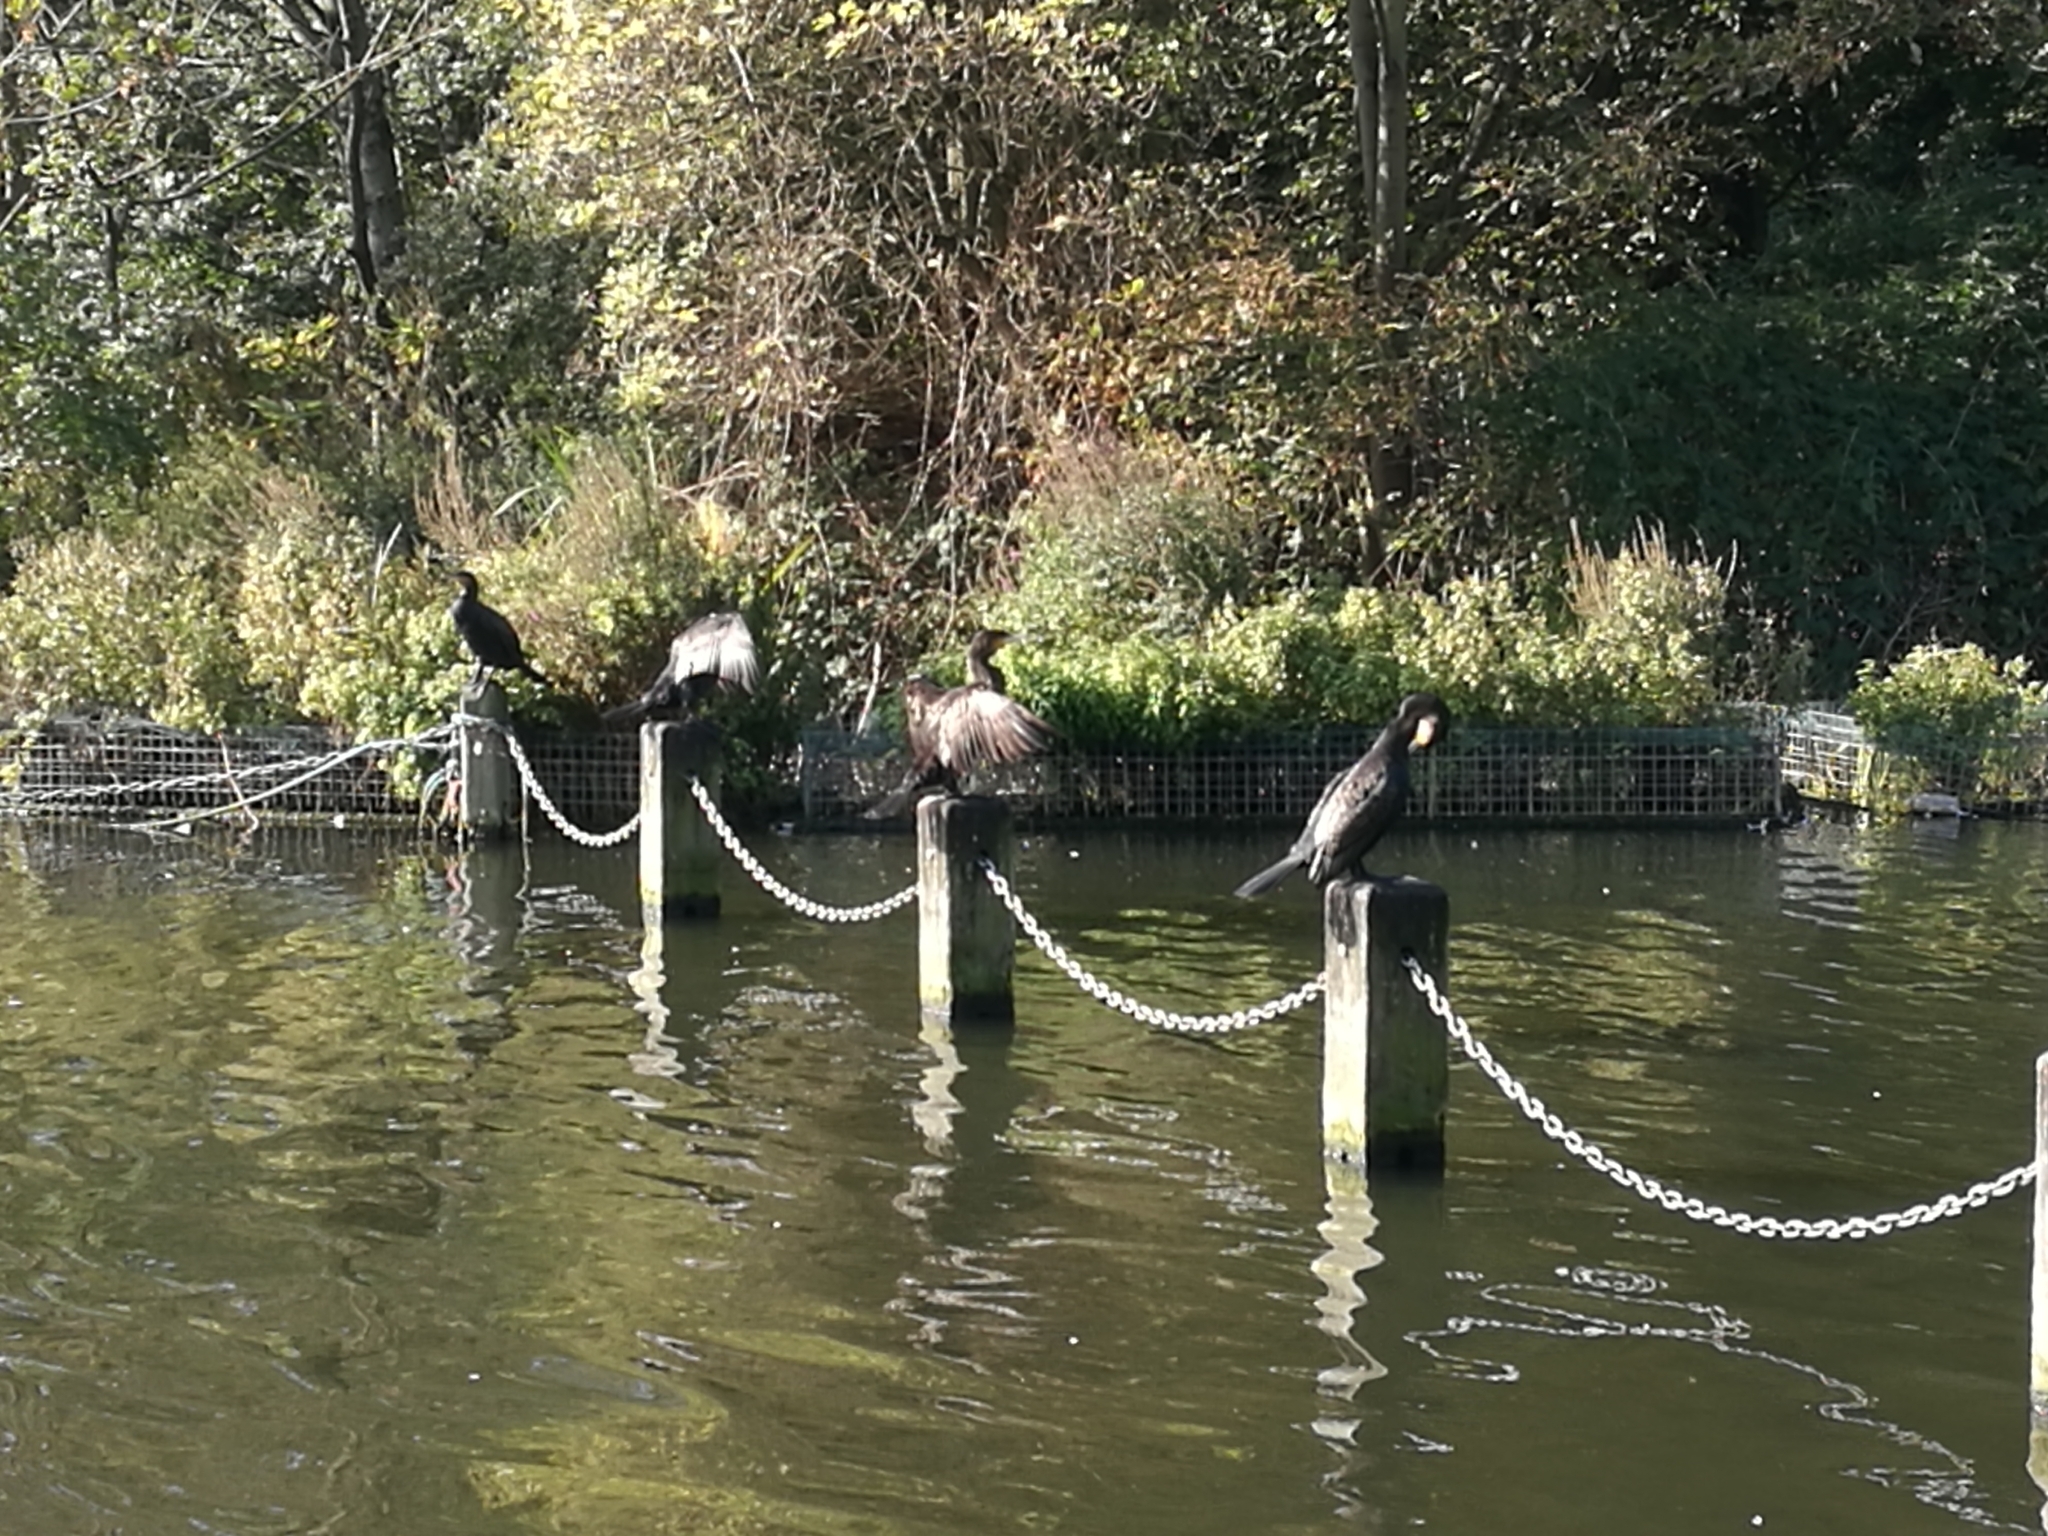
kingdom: Animalia
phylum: Chordata
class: Aves
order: Suliformes
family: Phalacrocoracidae
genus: Phalacrocorax
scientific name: Phalacrocorax carbo
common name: Great cormorant
